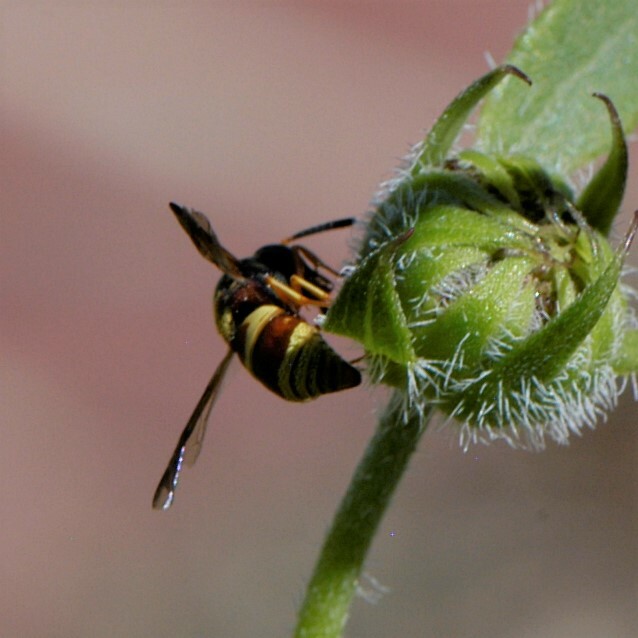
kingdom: Animalia
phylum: Arthropoda
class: Insecta
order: Hymenoptera
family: Eumenidae
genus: Euodynerus
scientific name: Euodynerus
